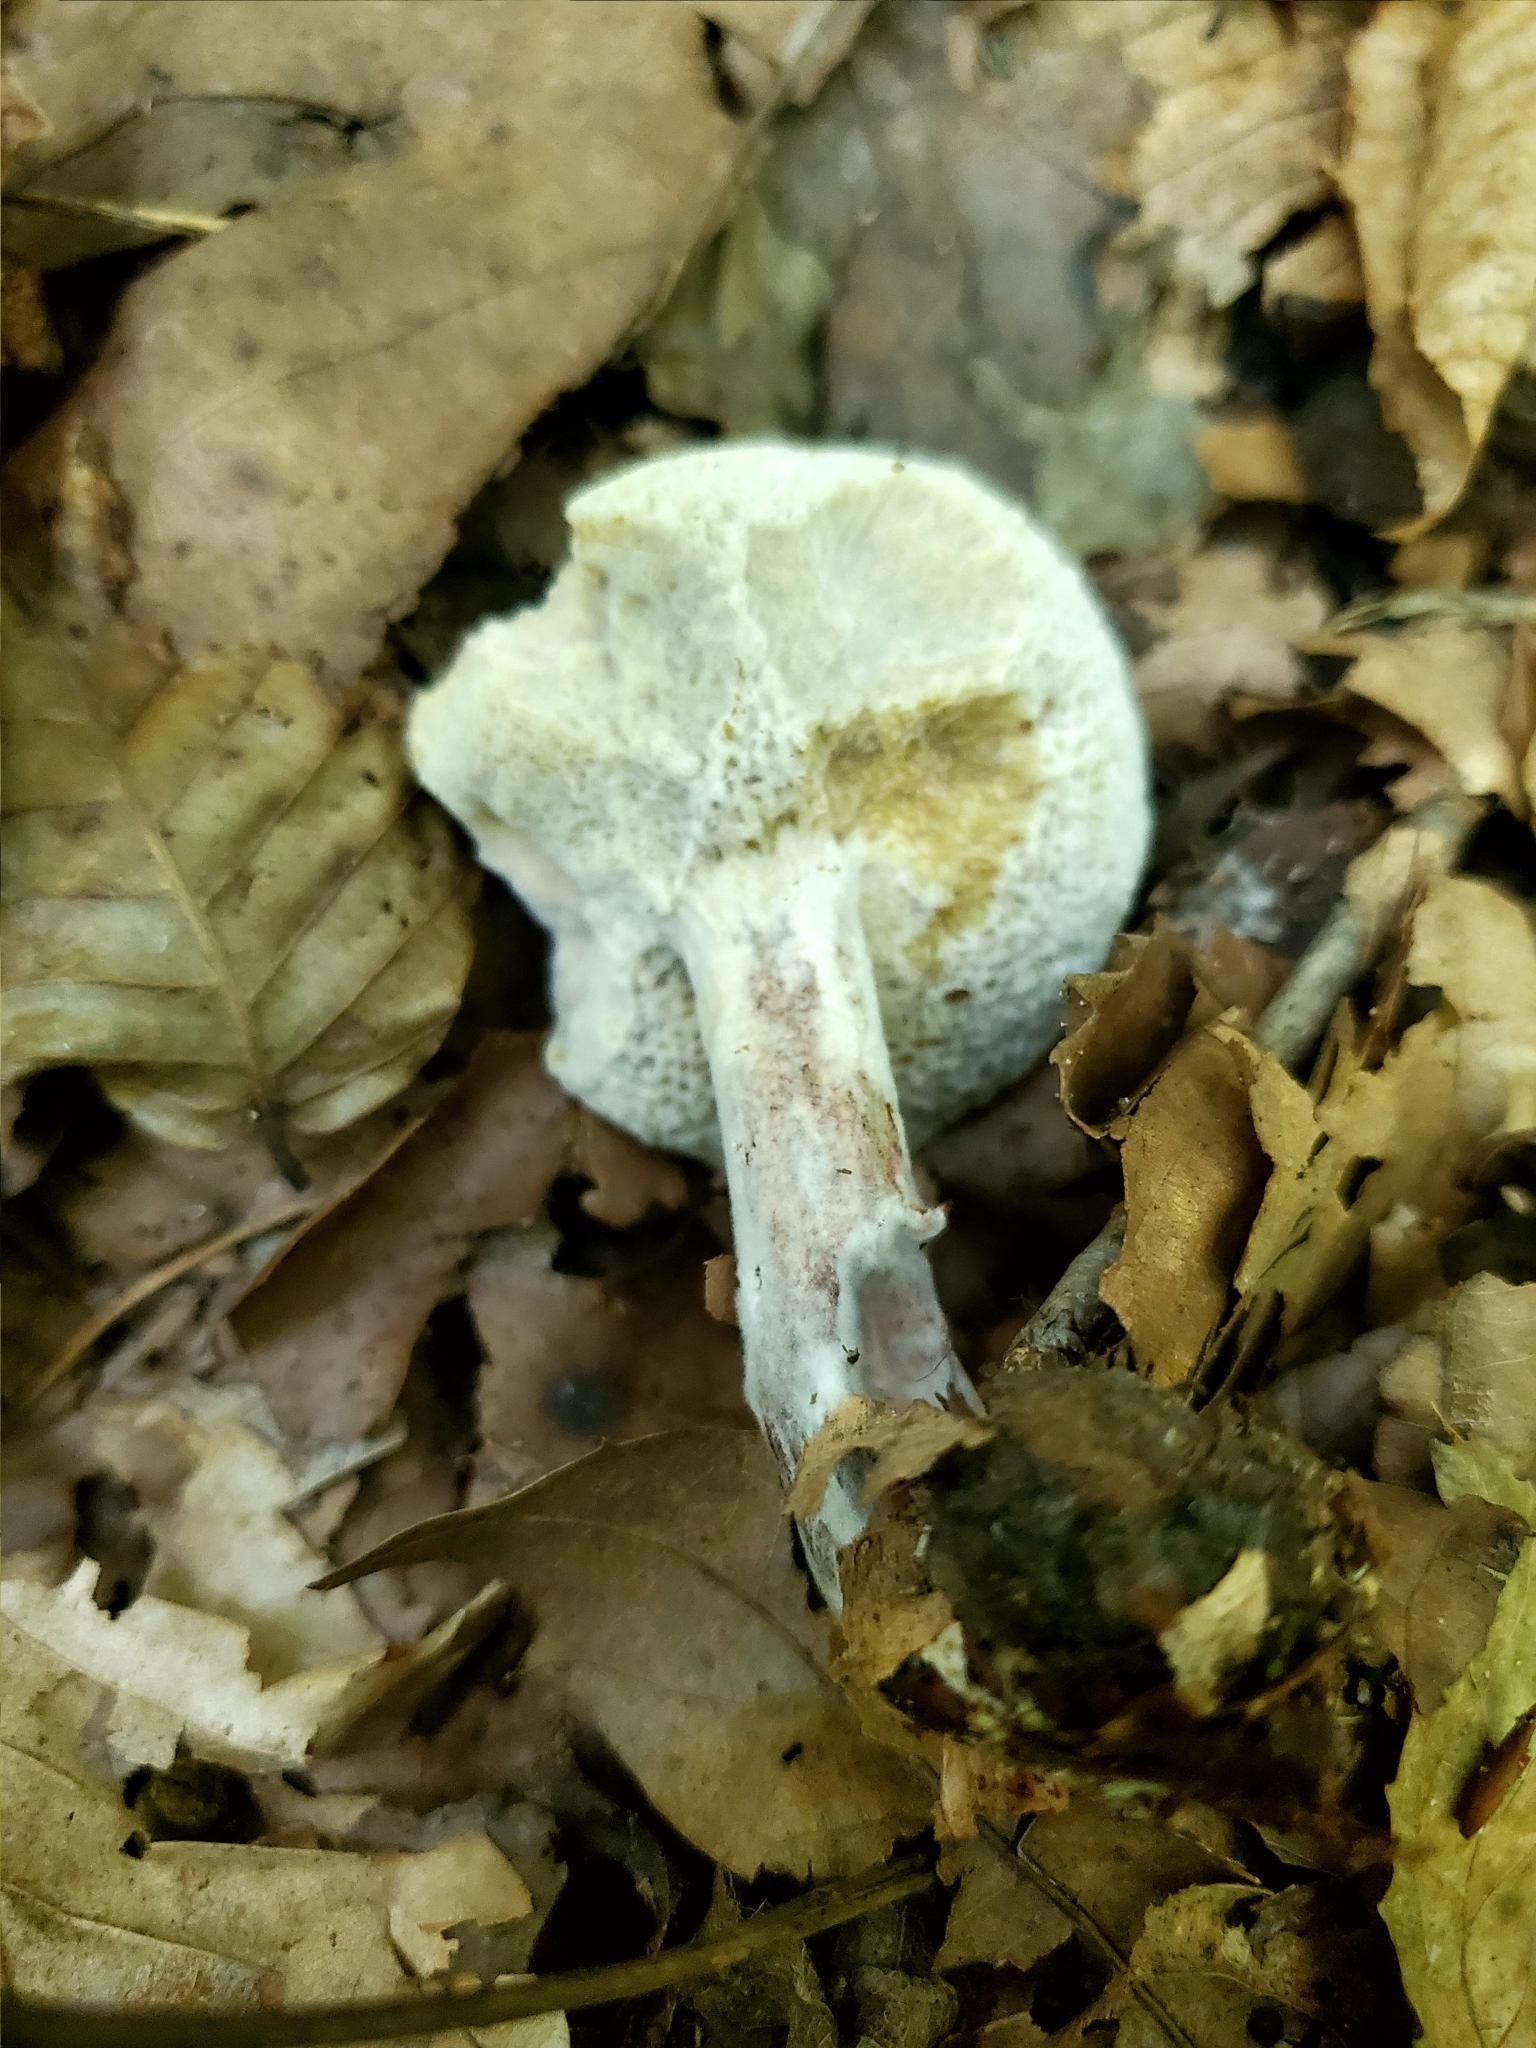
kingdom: Fungi
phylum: Ascomycota
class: Sordariomycetes
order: Hypocreales
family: Hypocreaceae
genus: Hypomyces
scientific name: Hypomyces chrysospermus
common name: Bolete mould
